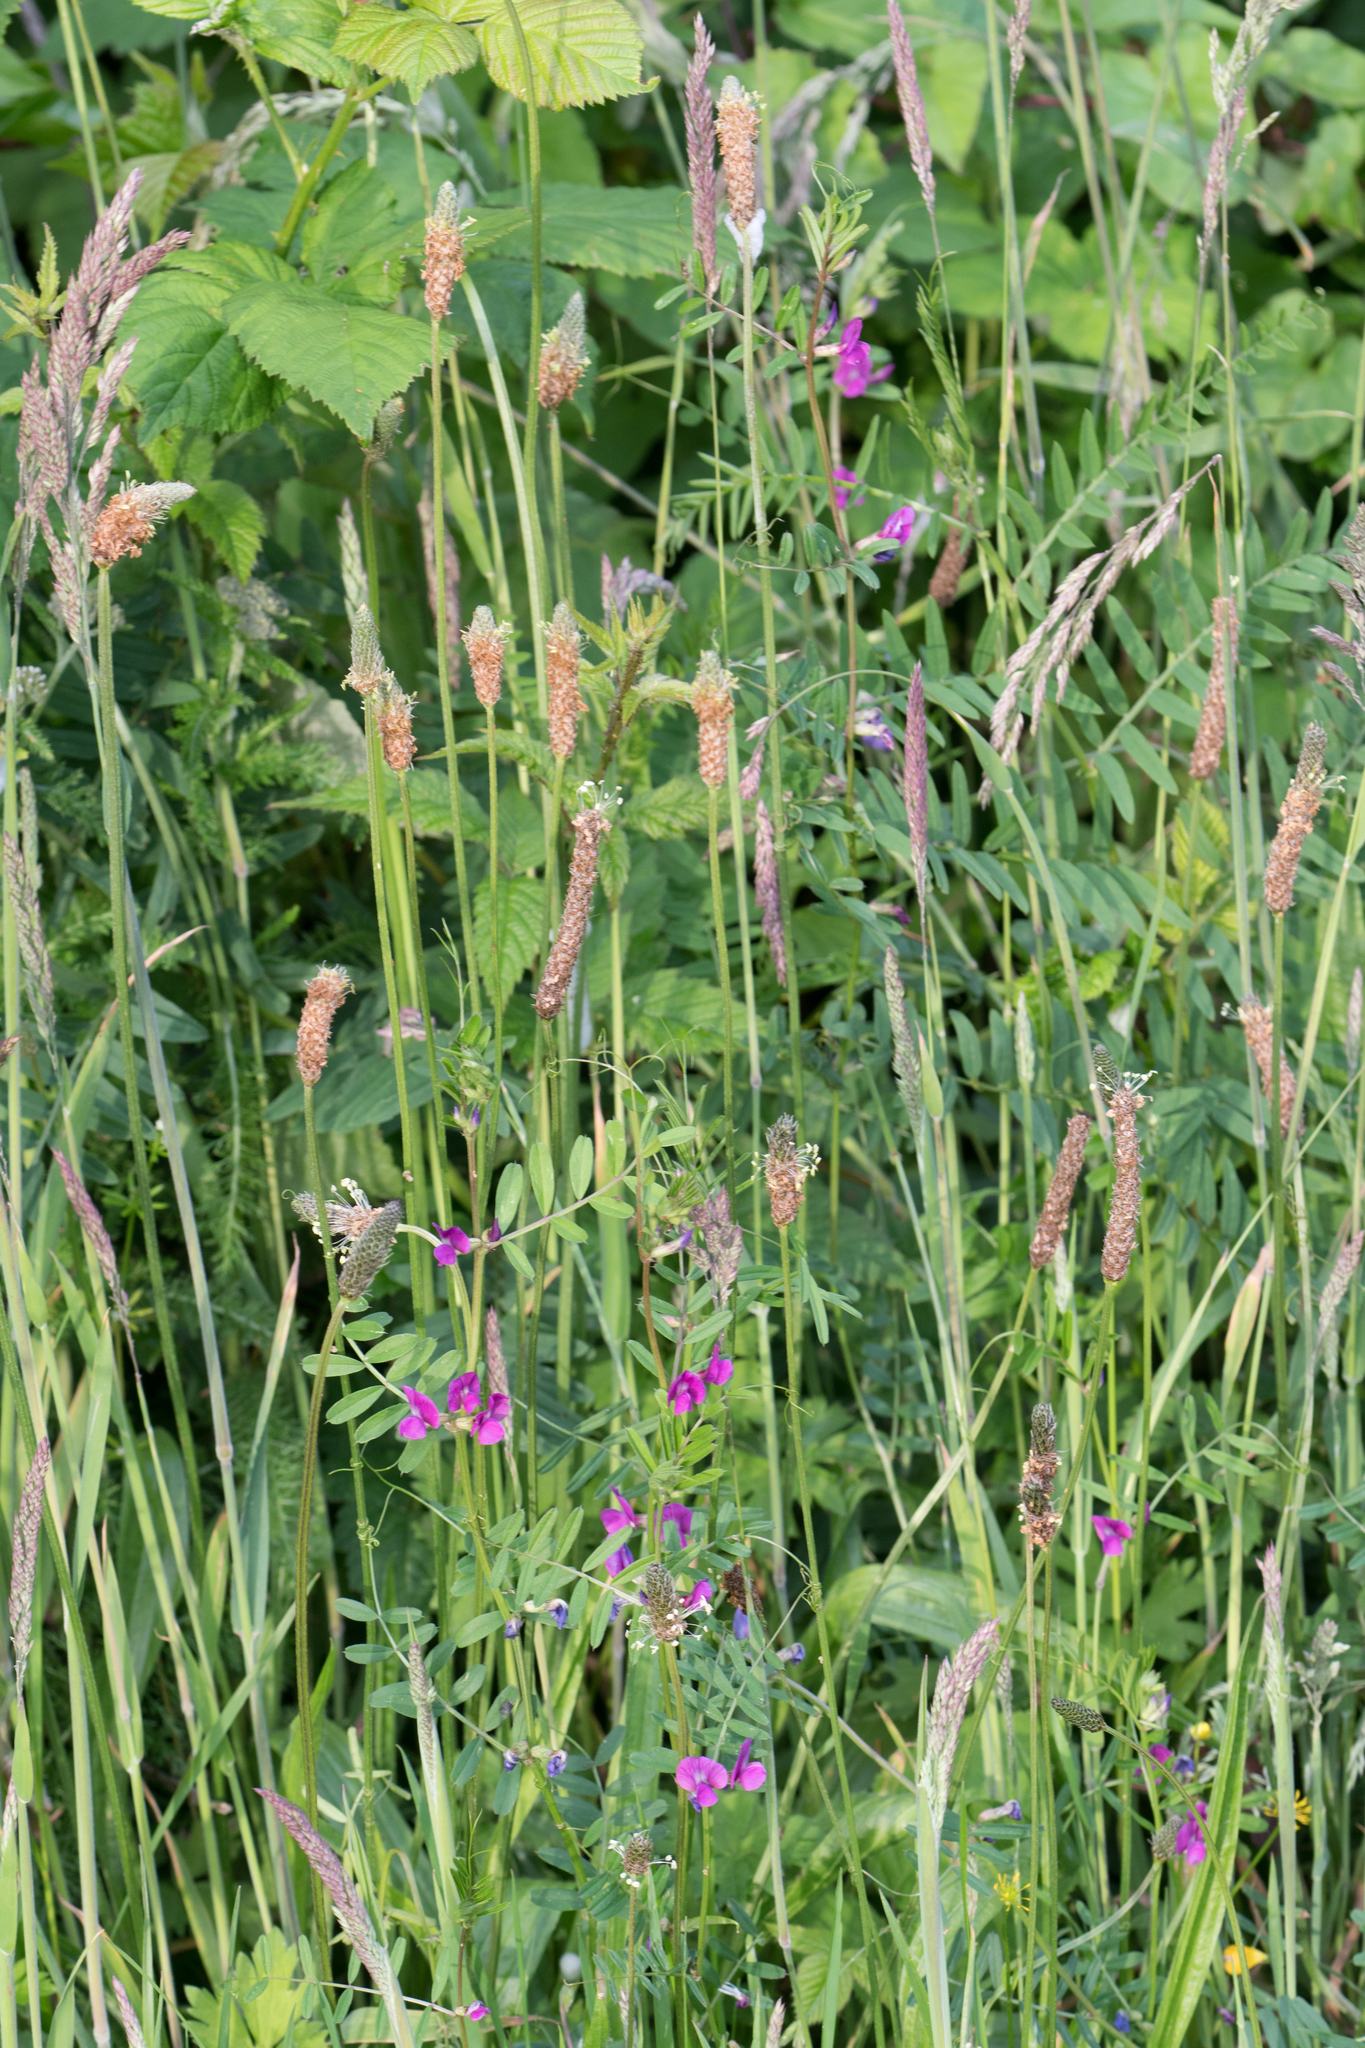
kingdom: Plantae
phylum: Tracheophyta
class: Magnoliopsida
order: Fabales
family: Fabaceae
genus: Vicia
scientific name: Vicia sativa
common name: Garden vetch
